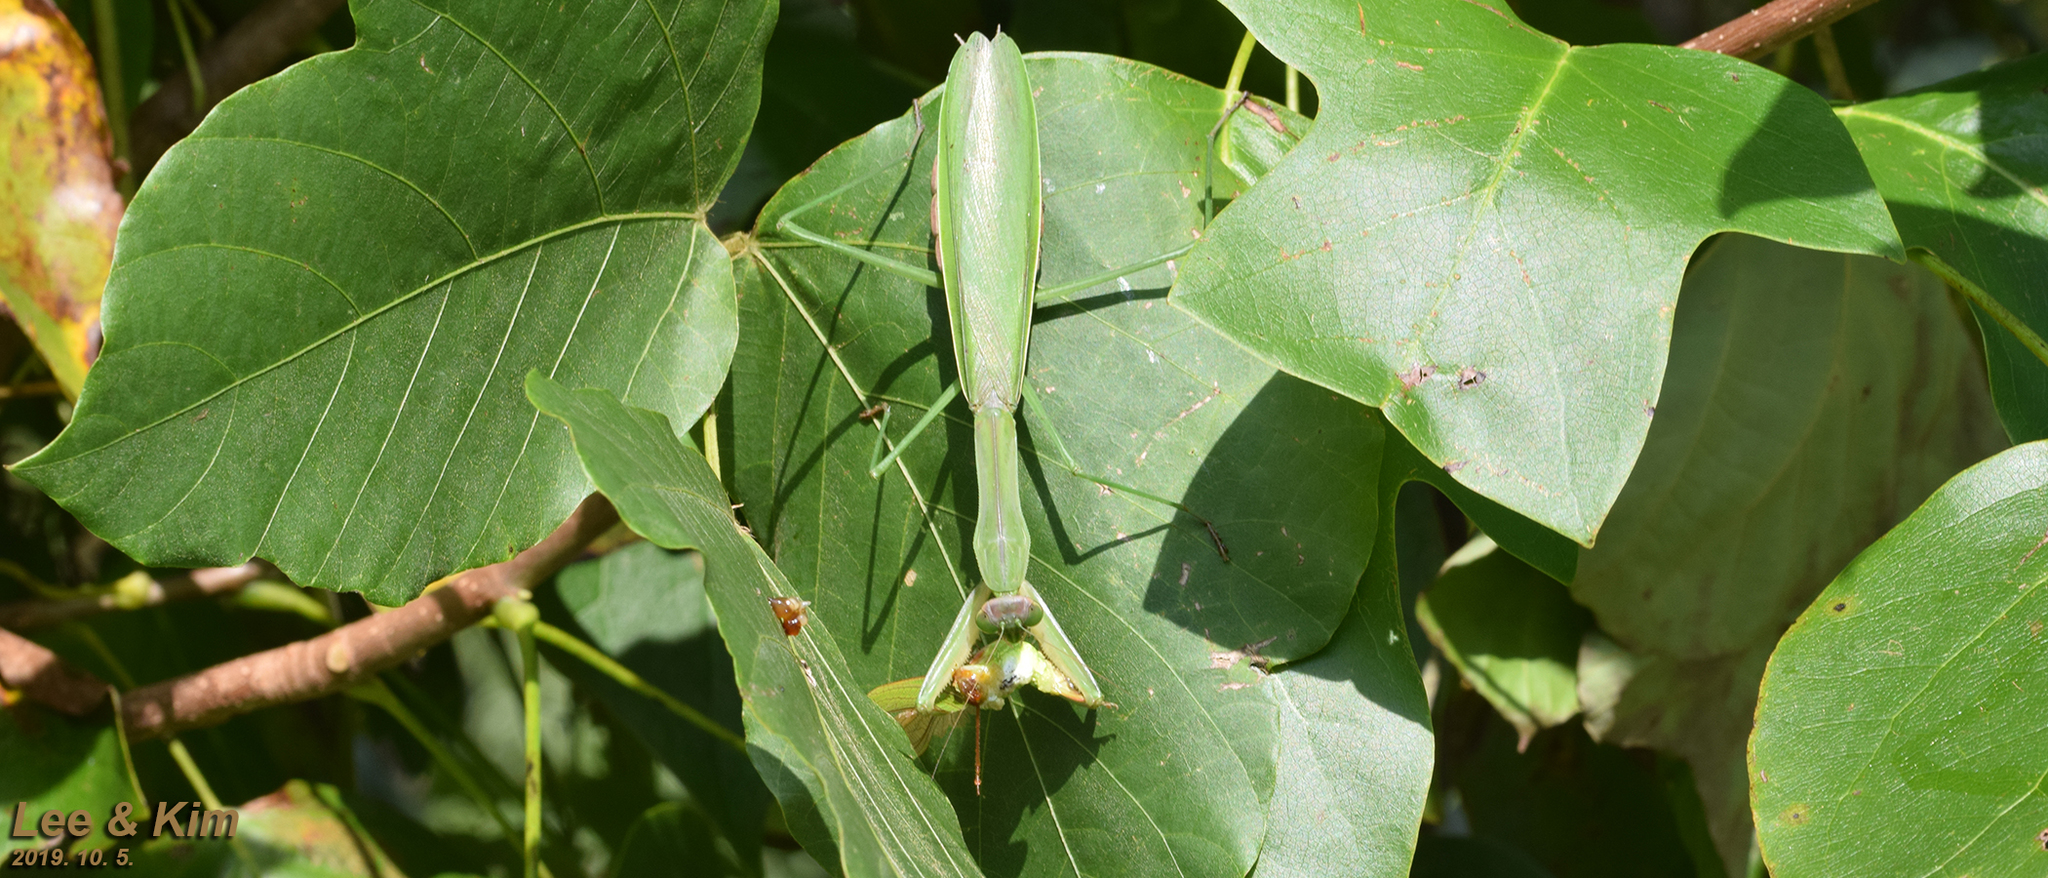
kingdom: Animalia
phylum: Arthropoda
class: Insecta
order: Mantodea
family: Mantidae
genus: Tenodera
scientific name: Tenodera sinensis
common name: Chinese mantis
